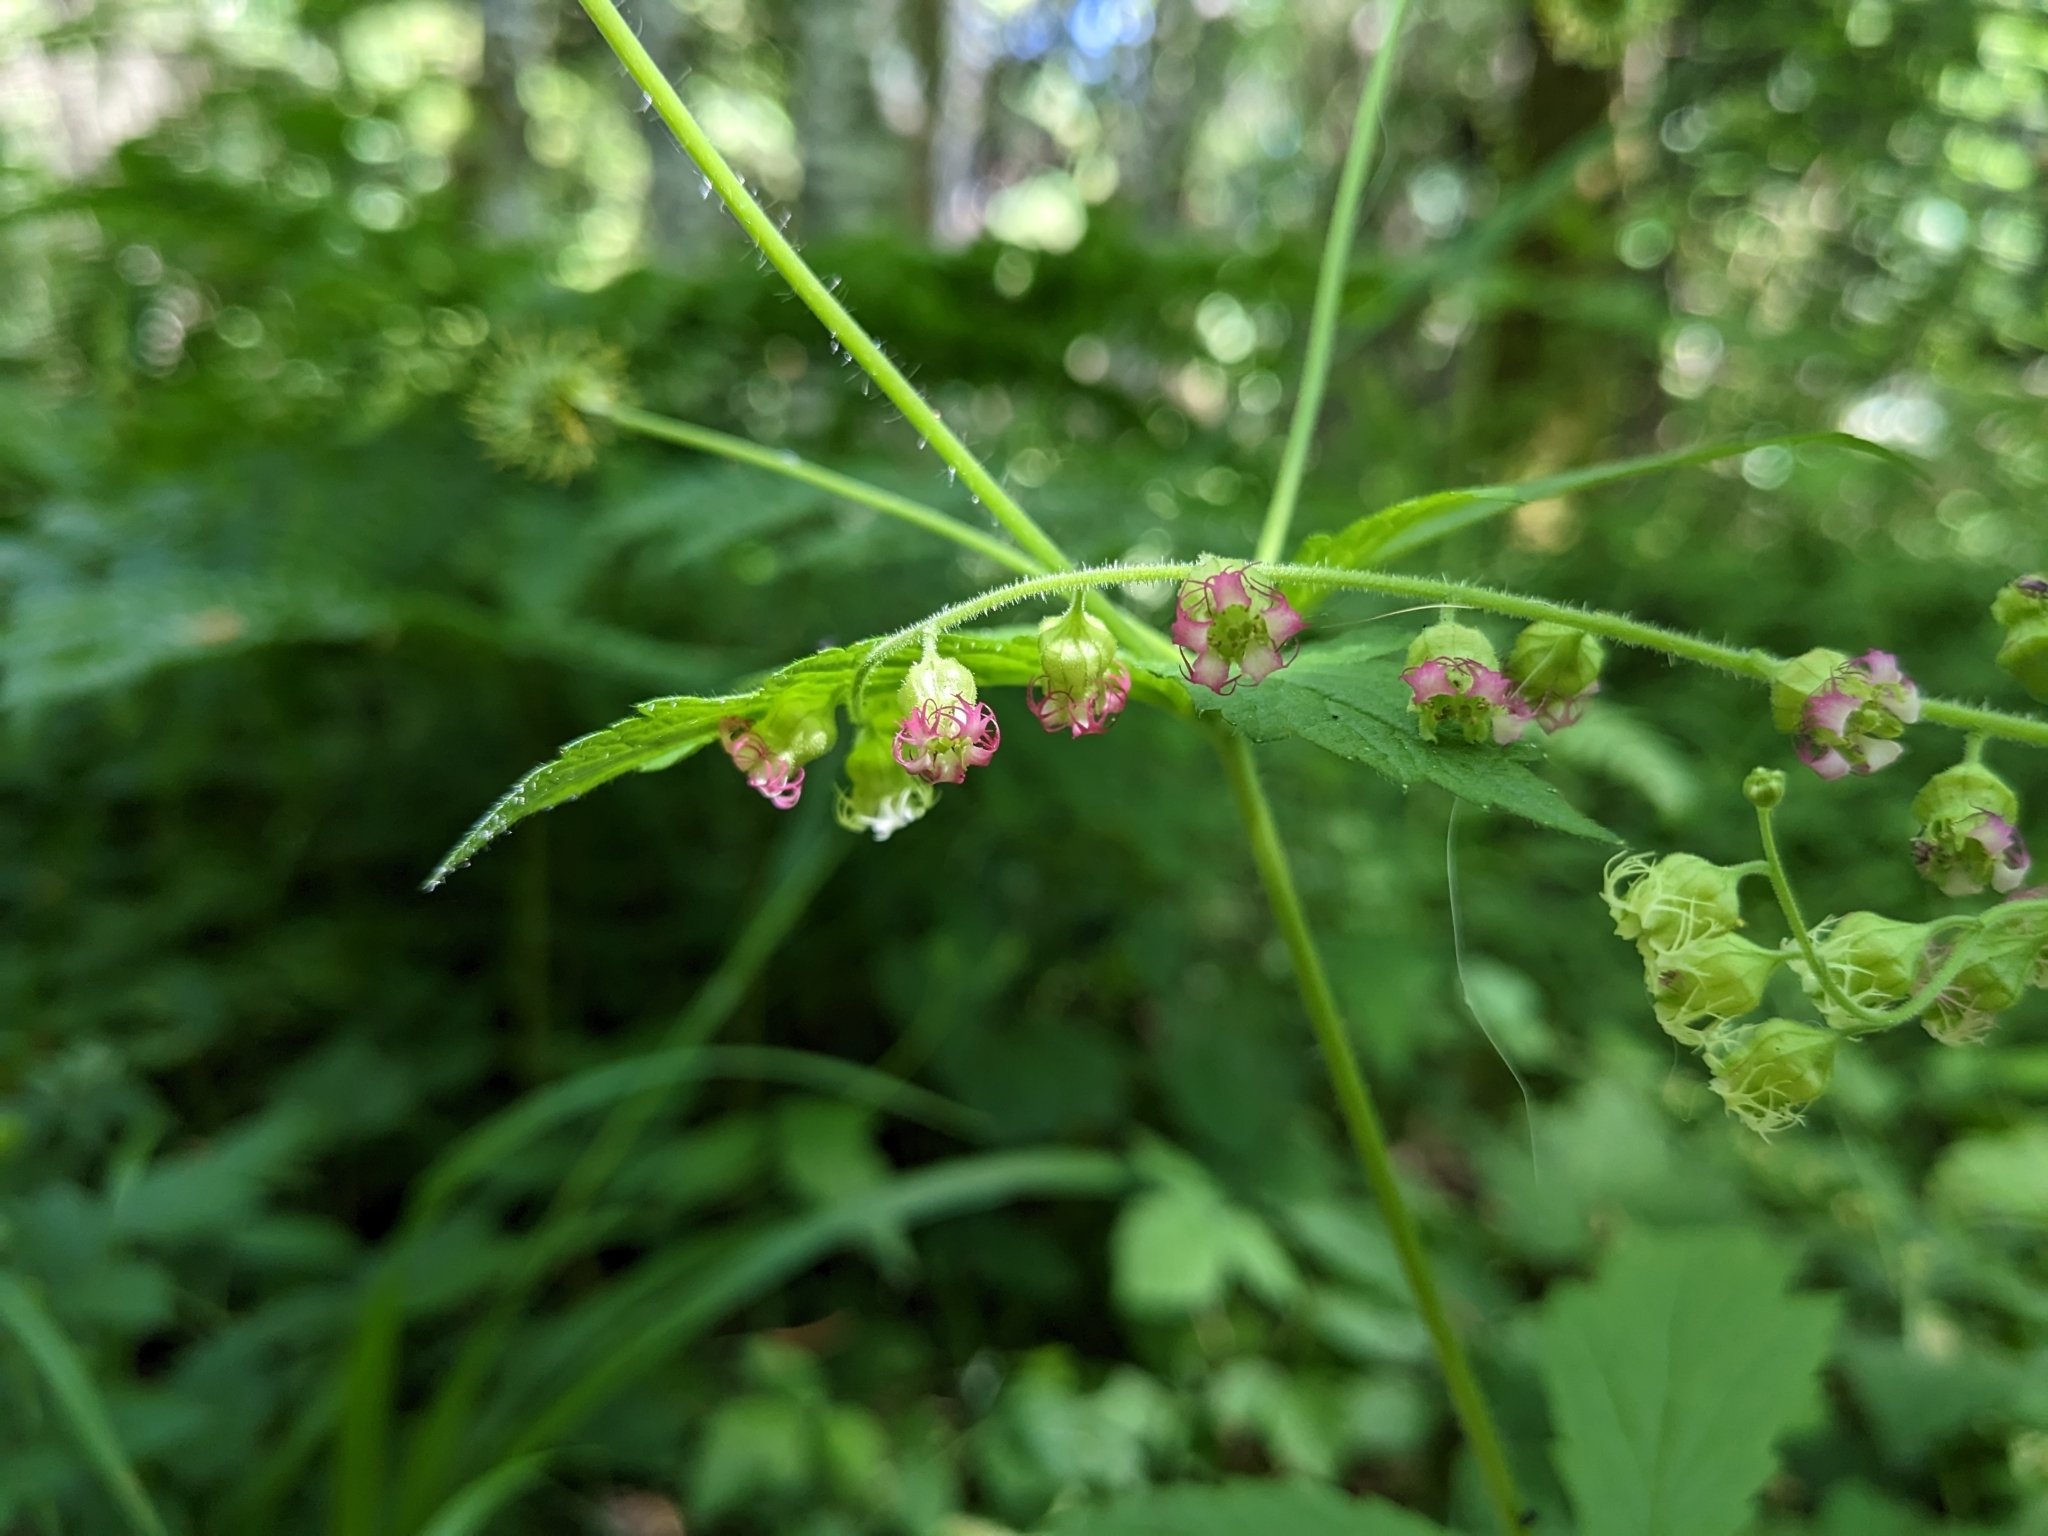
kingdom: Plantae
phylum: Tracheophyta
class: Magnoliopsida
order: Saxifragales
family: Saxifragaceae
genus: Tellima
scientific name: Tellima grandiflora
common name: Fringecups
